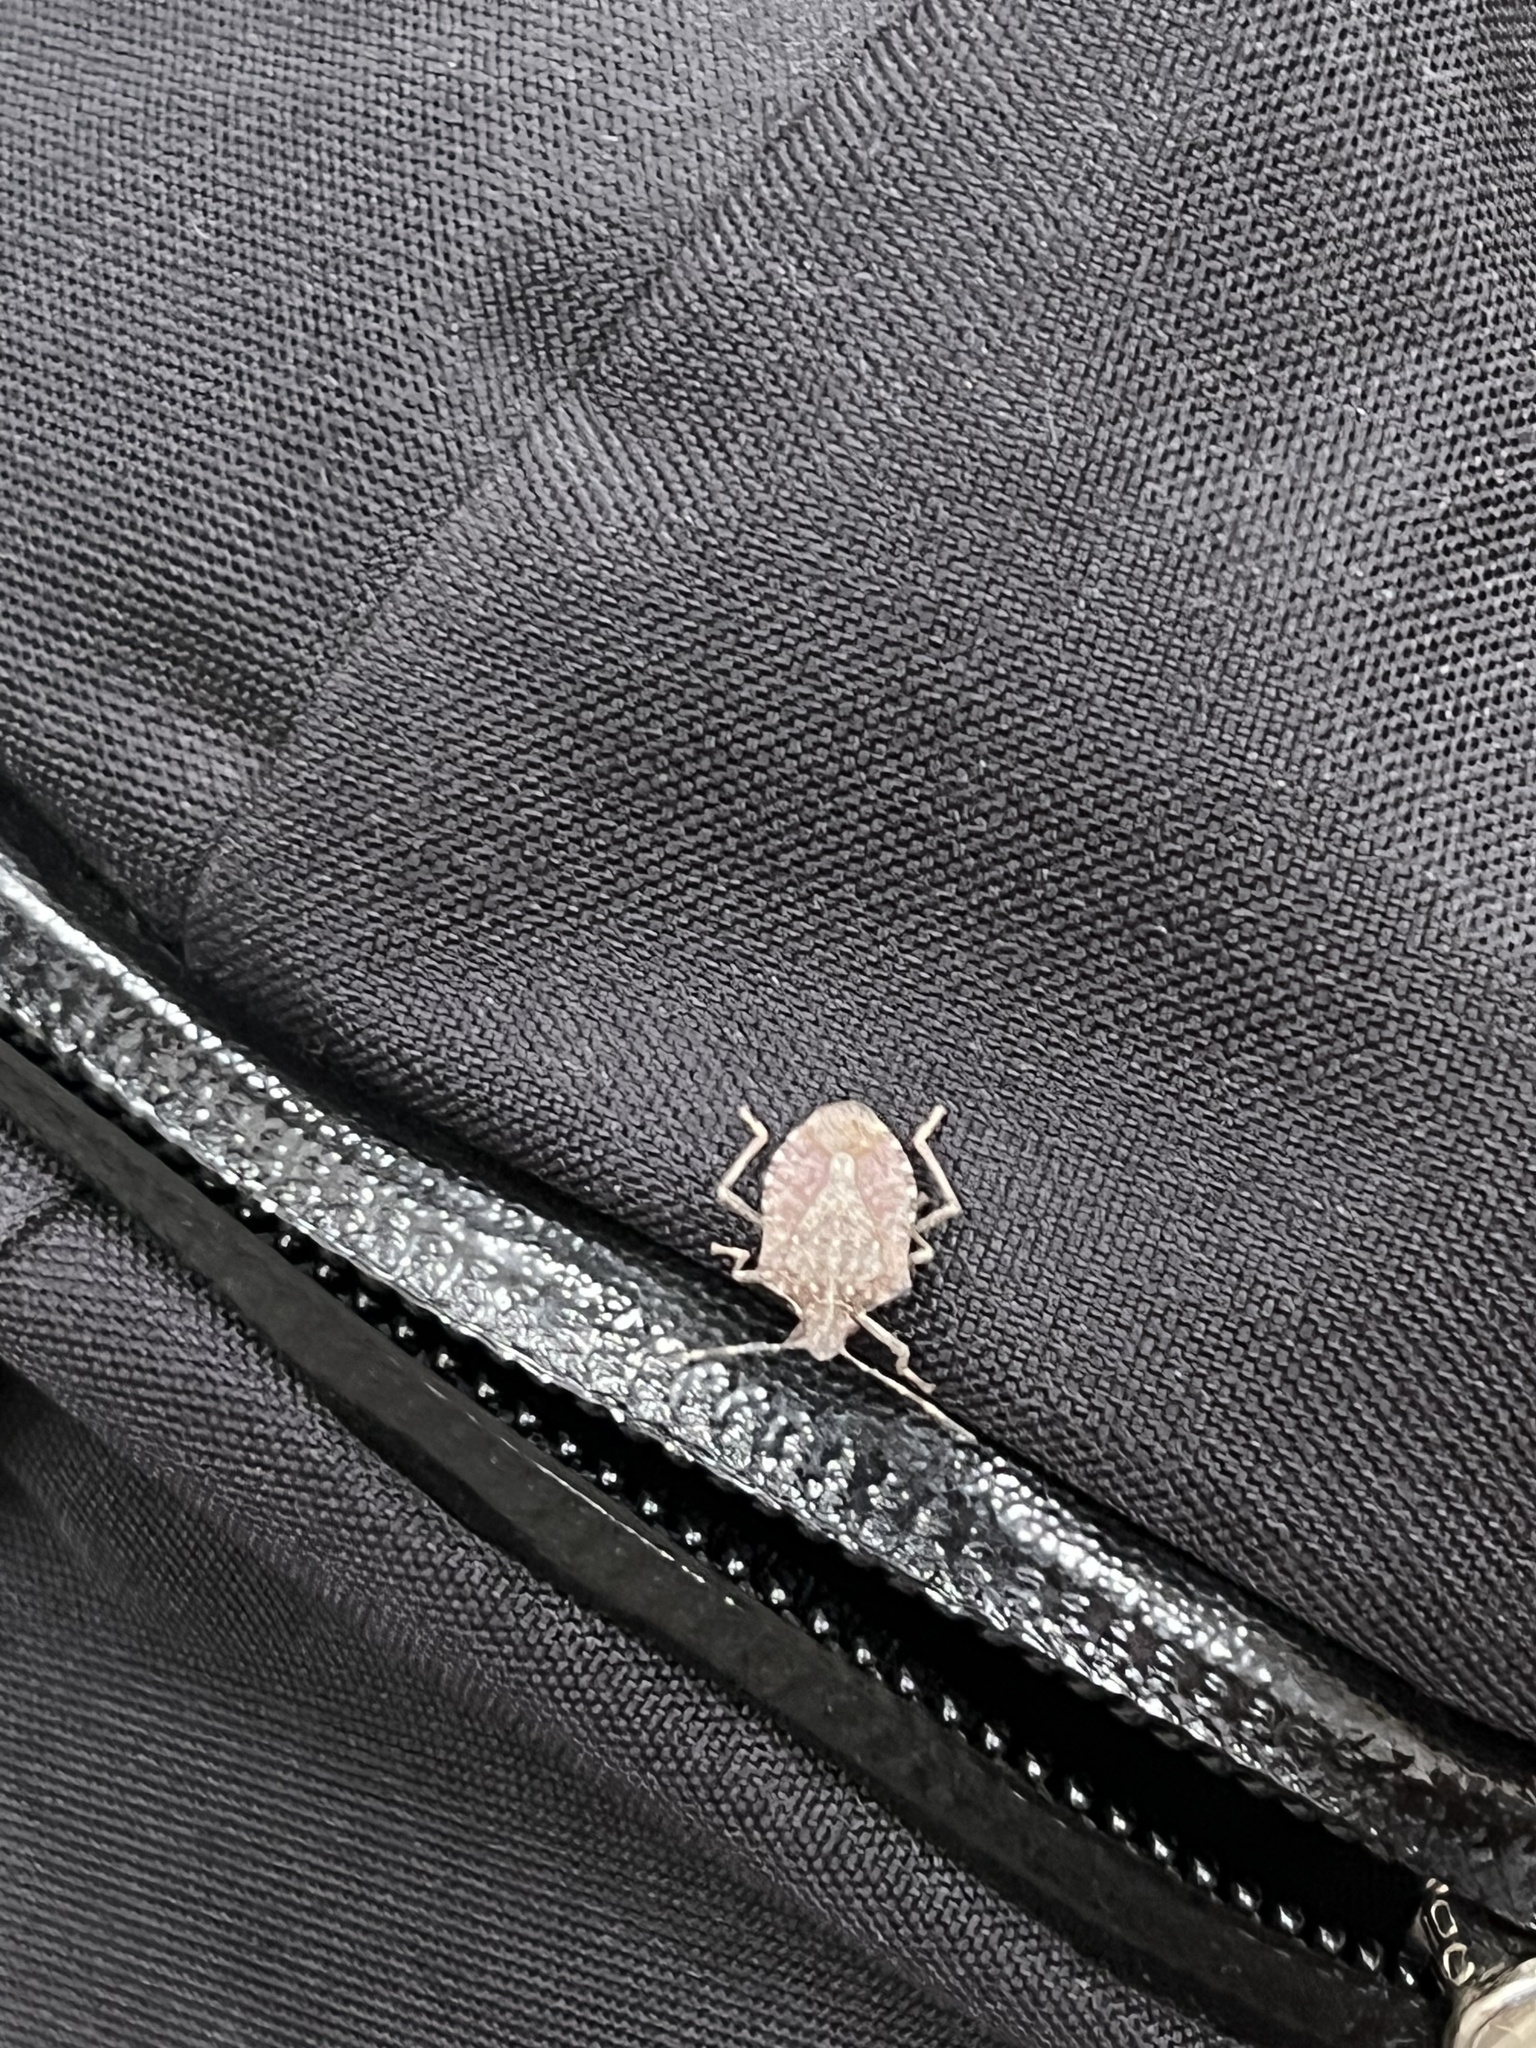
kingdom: Animalia
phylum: Arthropoda
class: Insecta
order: Hemiptera
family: Pentatomidae
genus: Halyomorpha
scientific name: Halyomorpha halys
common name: Brown marmorated stink bug
